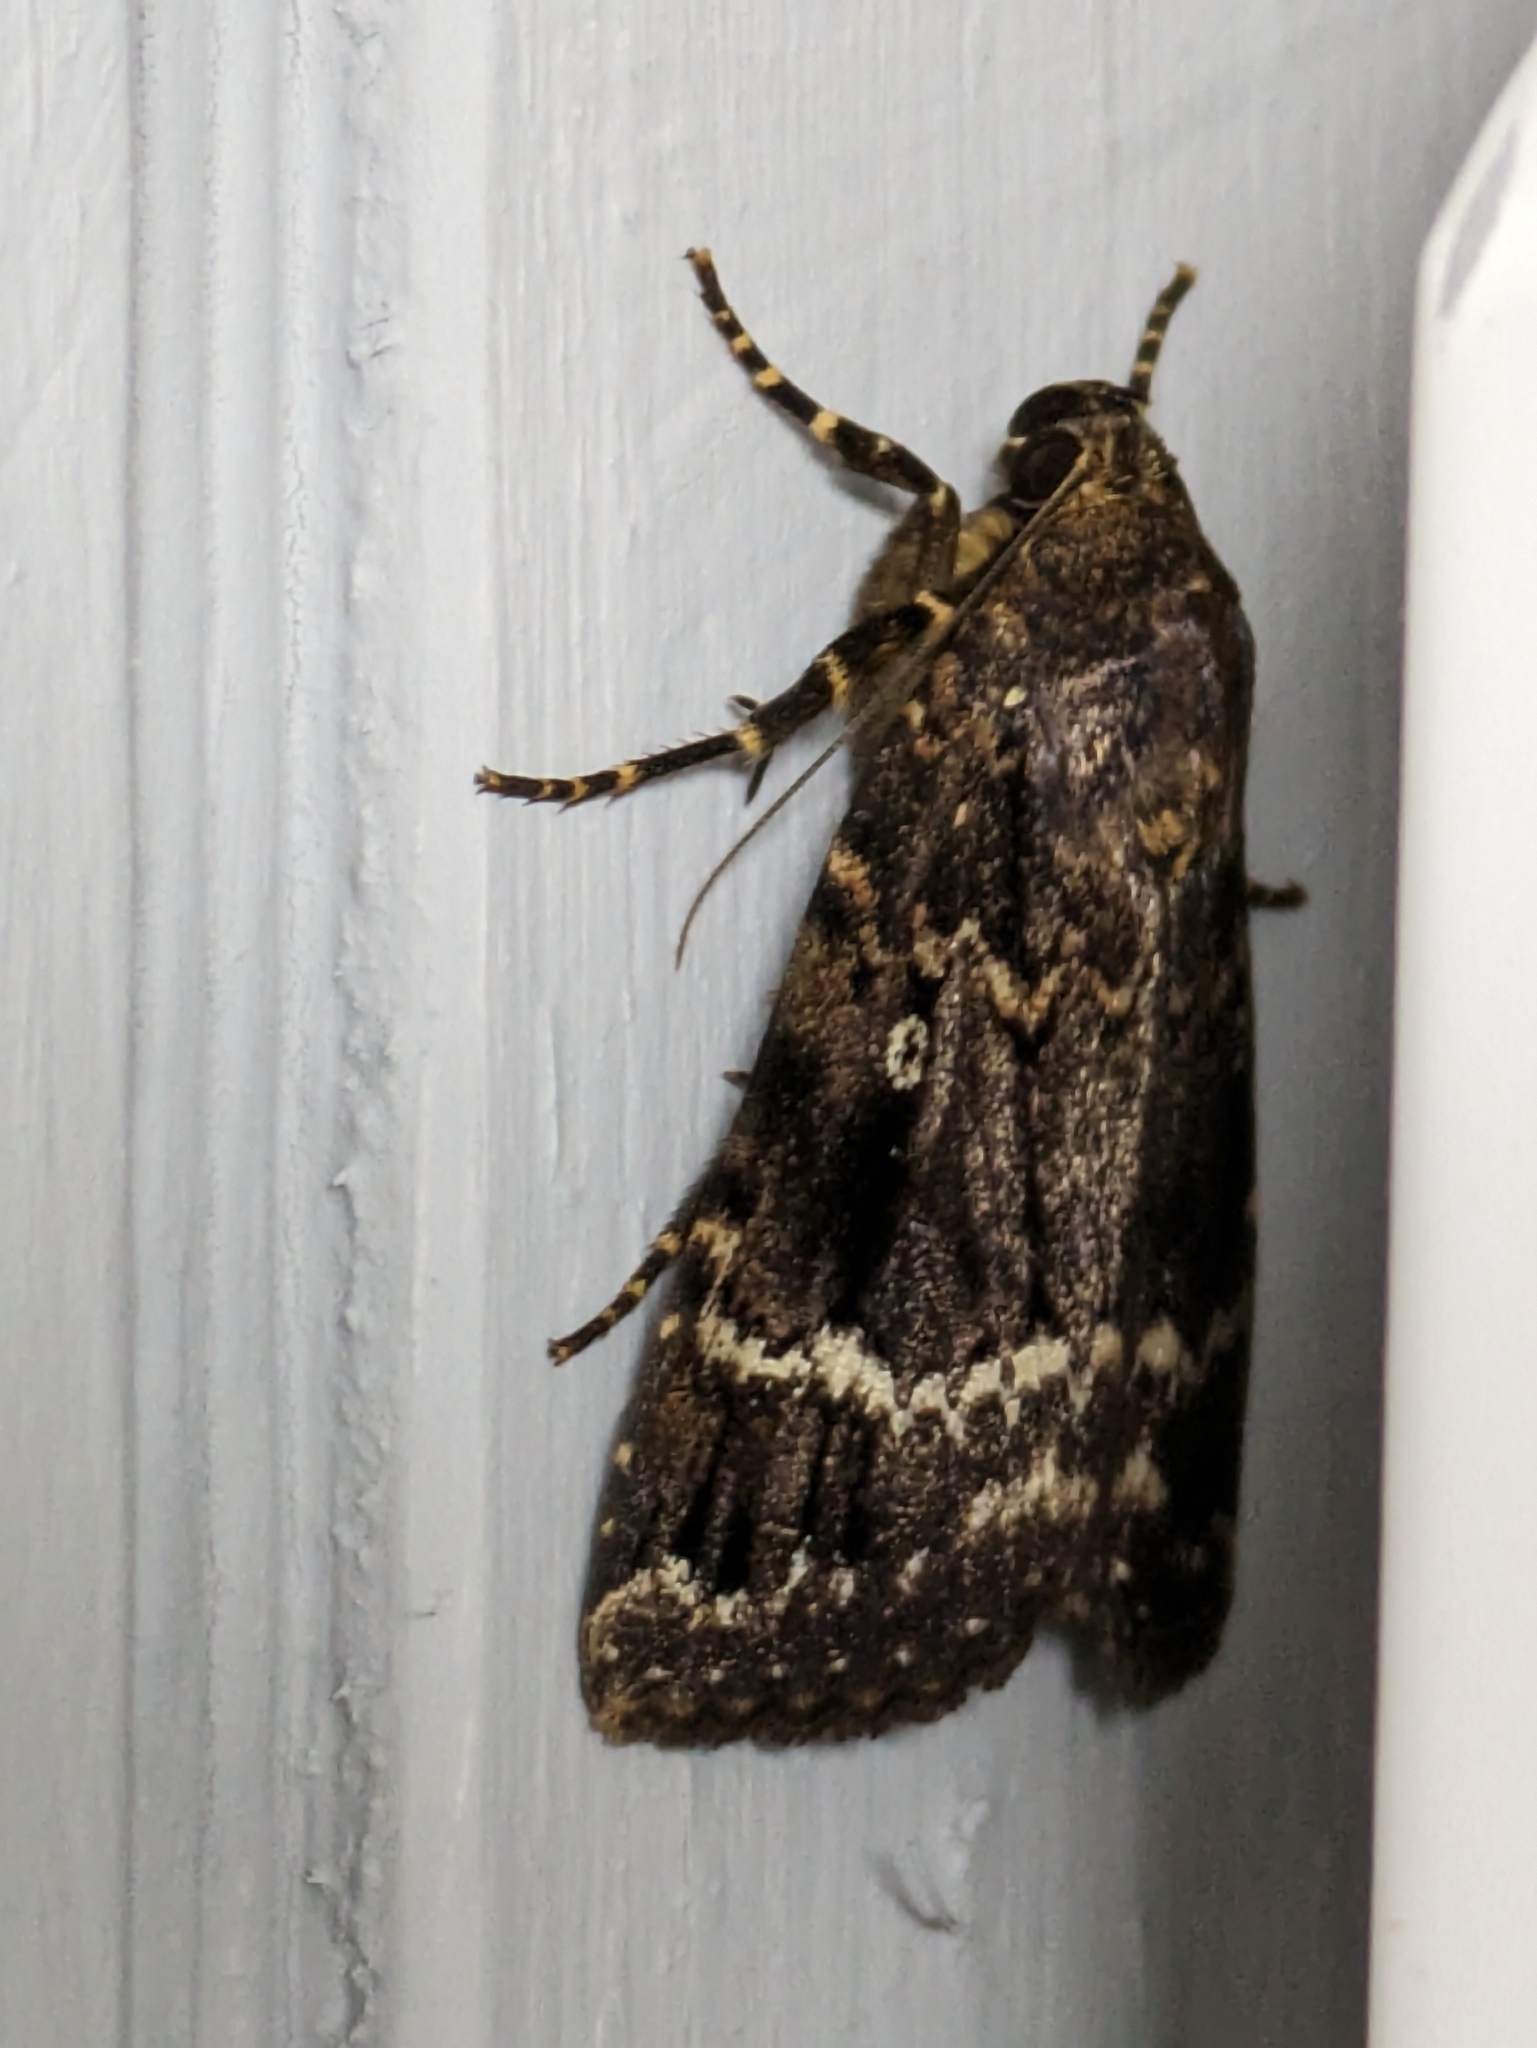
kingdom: Animalia
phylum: Arthropoda
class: Insecta
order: Lepidoptera
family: Noctuidae
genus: Amphipyra
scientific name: Amphipyra pyramidea
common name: Copper underwing
